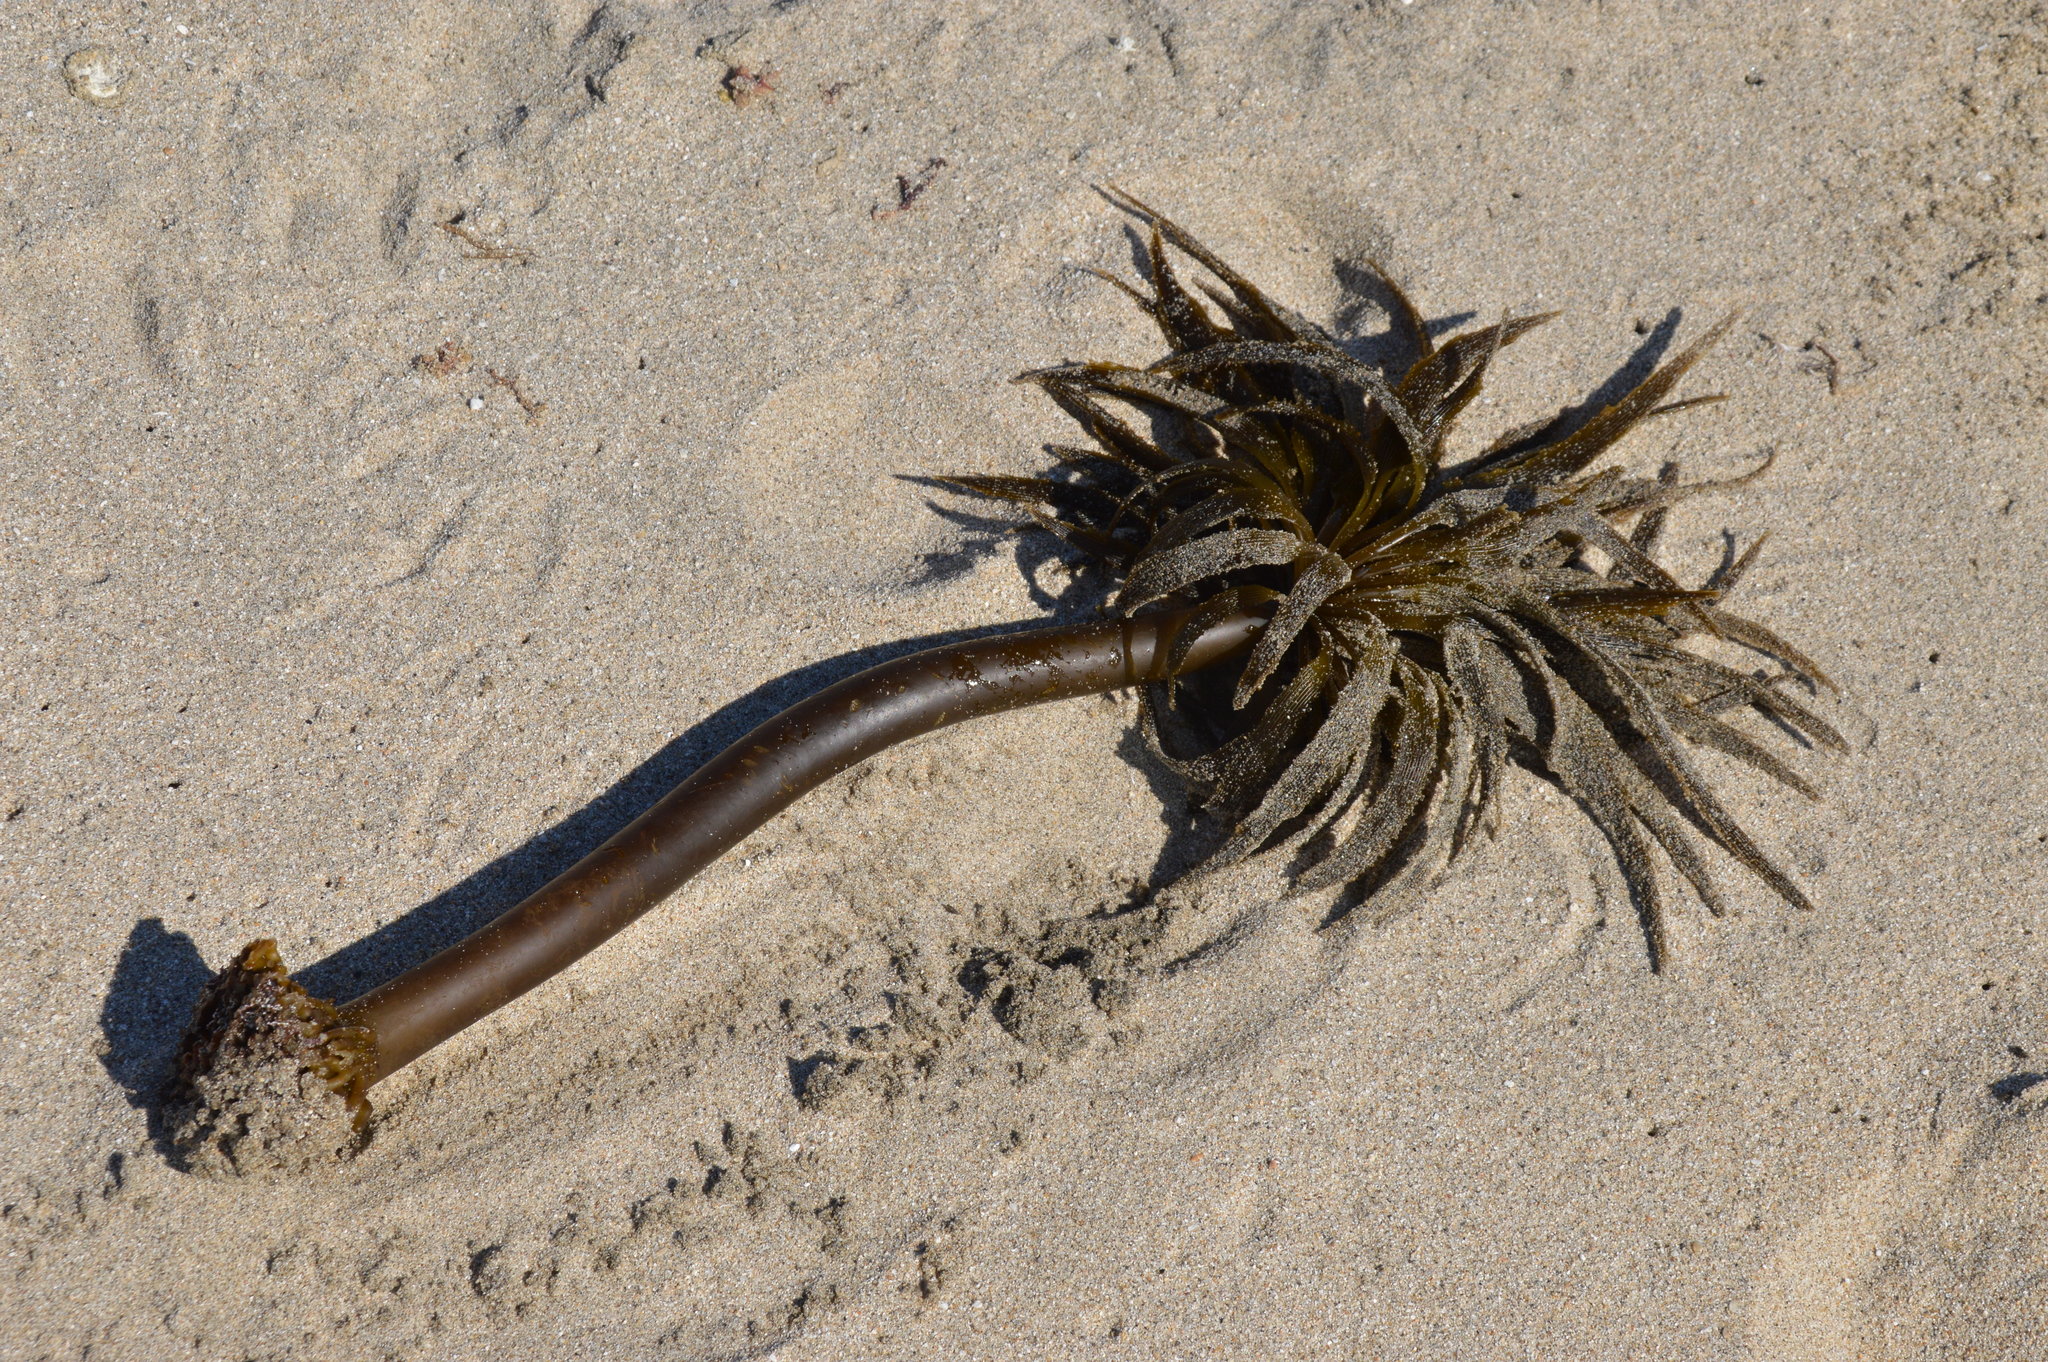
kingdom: Chromista
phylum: Ochrophyta
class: Phaeophyceae
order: Laminariales
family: Laminariaceae
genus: Postelsia
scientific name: Postelsia palmiformis
